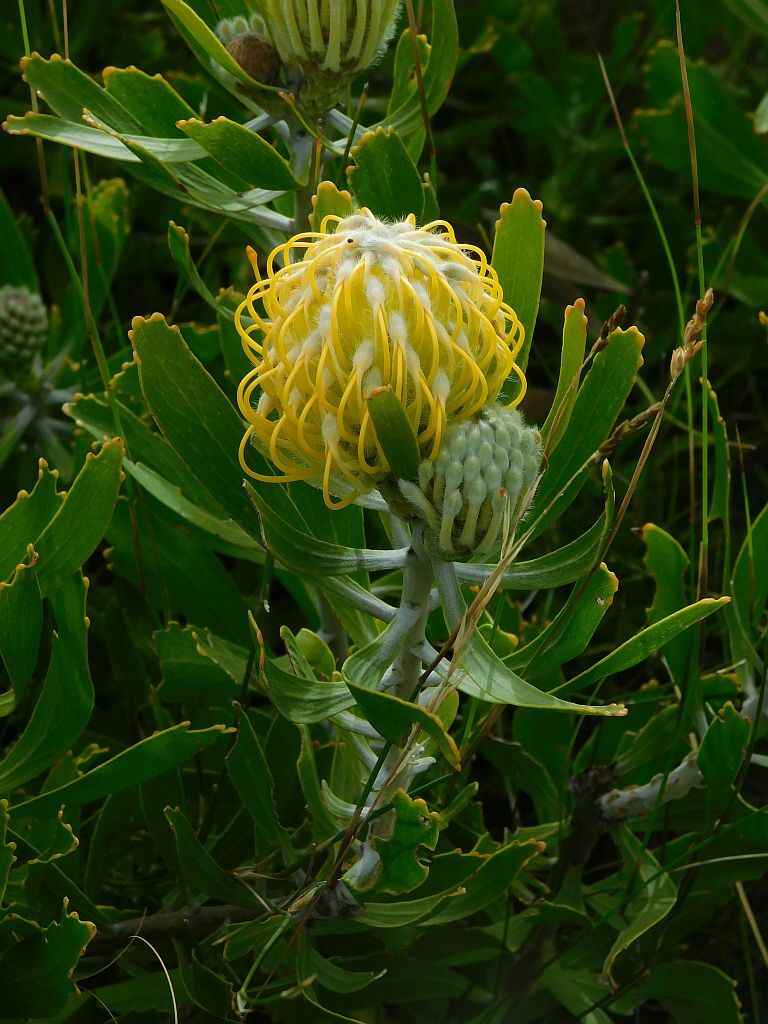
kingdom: Plantae
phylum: Tracheophyta
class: Magnoliopsida
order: Proteales
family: Proteaceae
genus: Leucospermum
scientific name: Leucospermum cuneiforme
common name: Common pincushion
